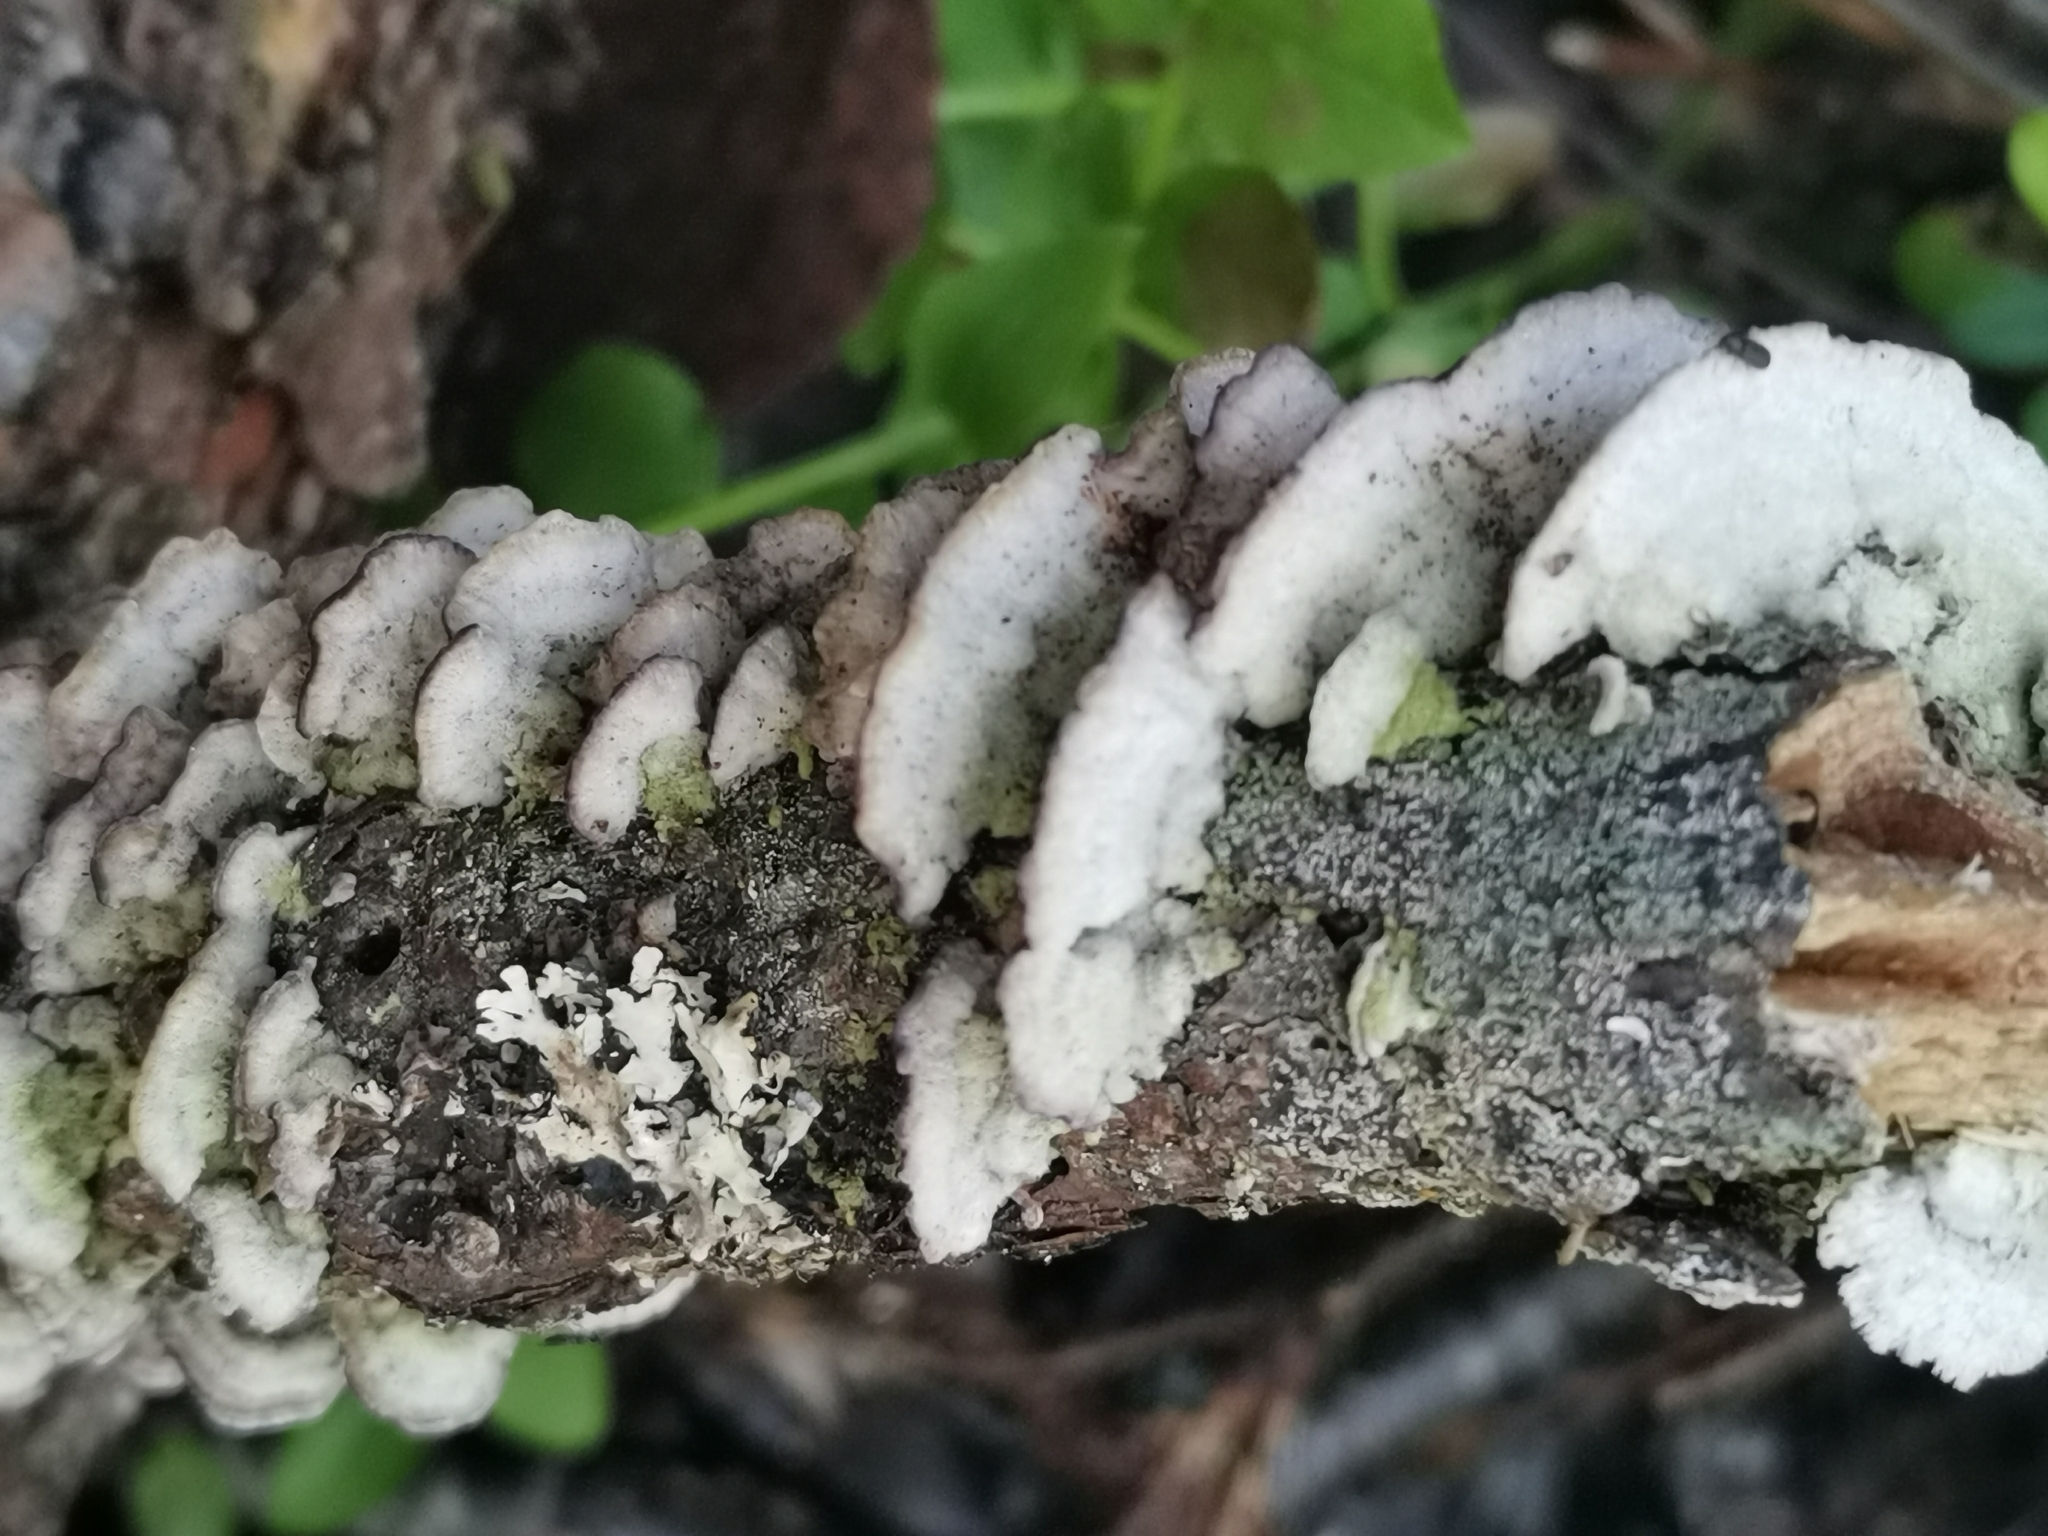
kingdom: Fungi
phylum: Basidiomycota
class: Agaricomycetes
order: Hymenochaetales
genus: Trichaptum
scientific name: Trichaptum abietinum
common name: Purplepore bracket
